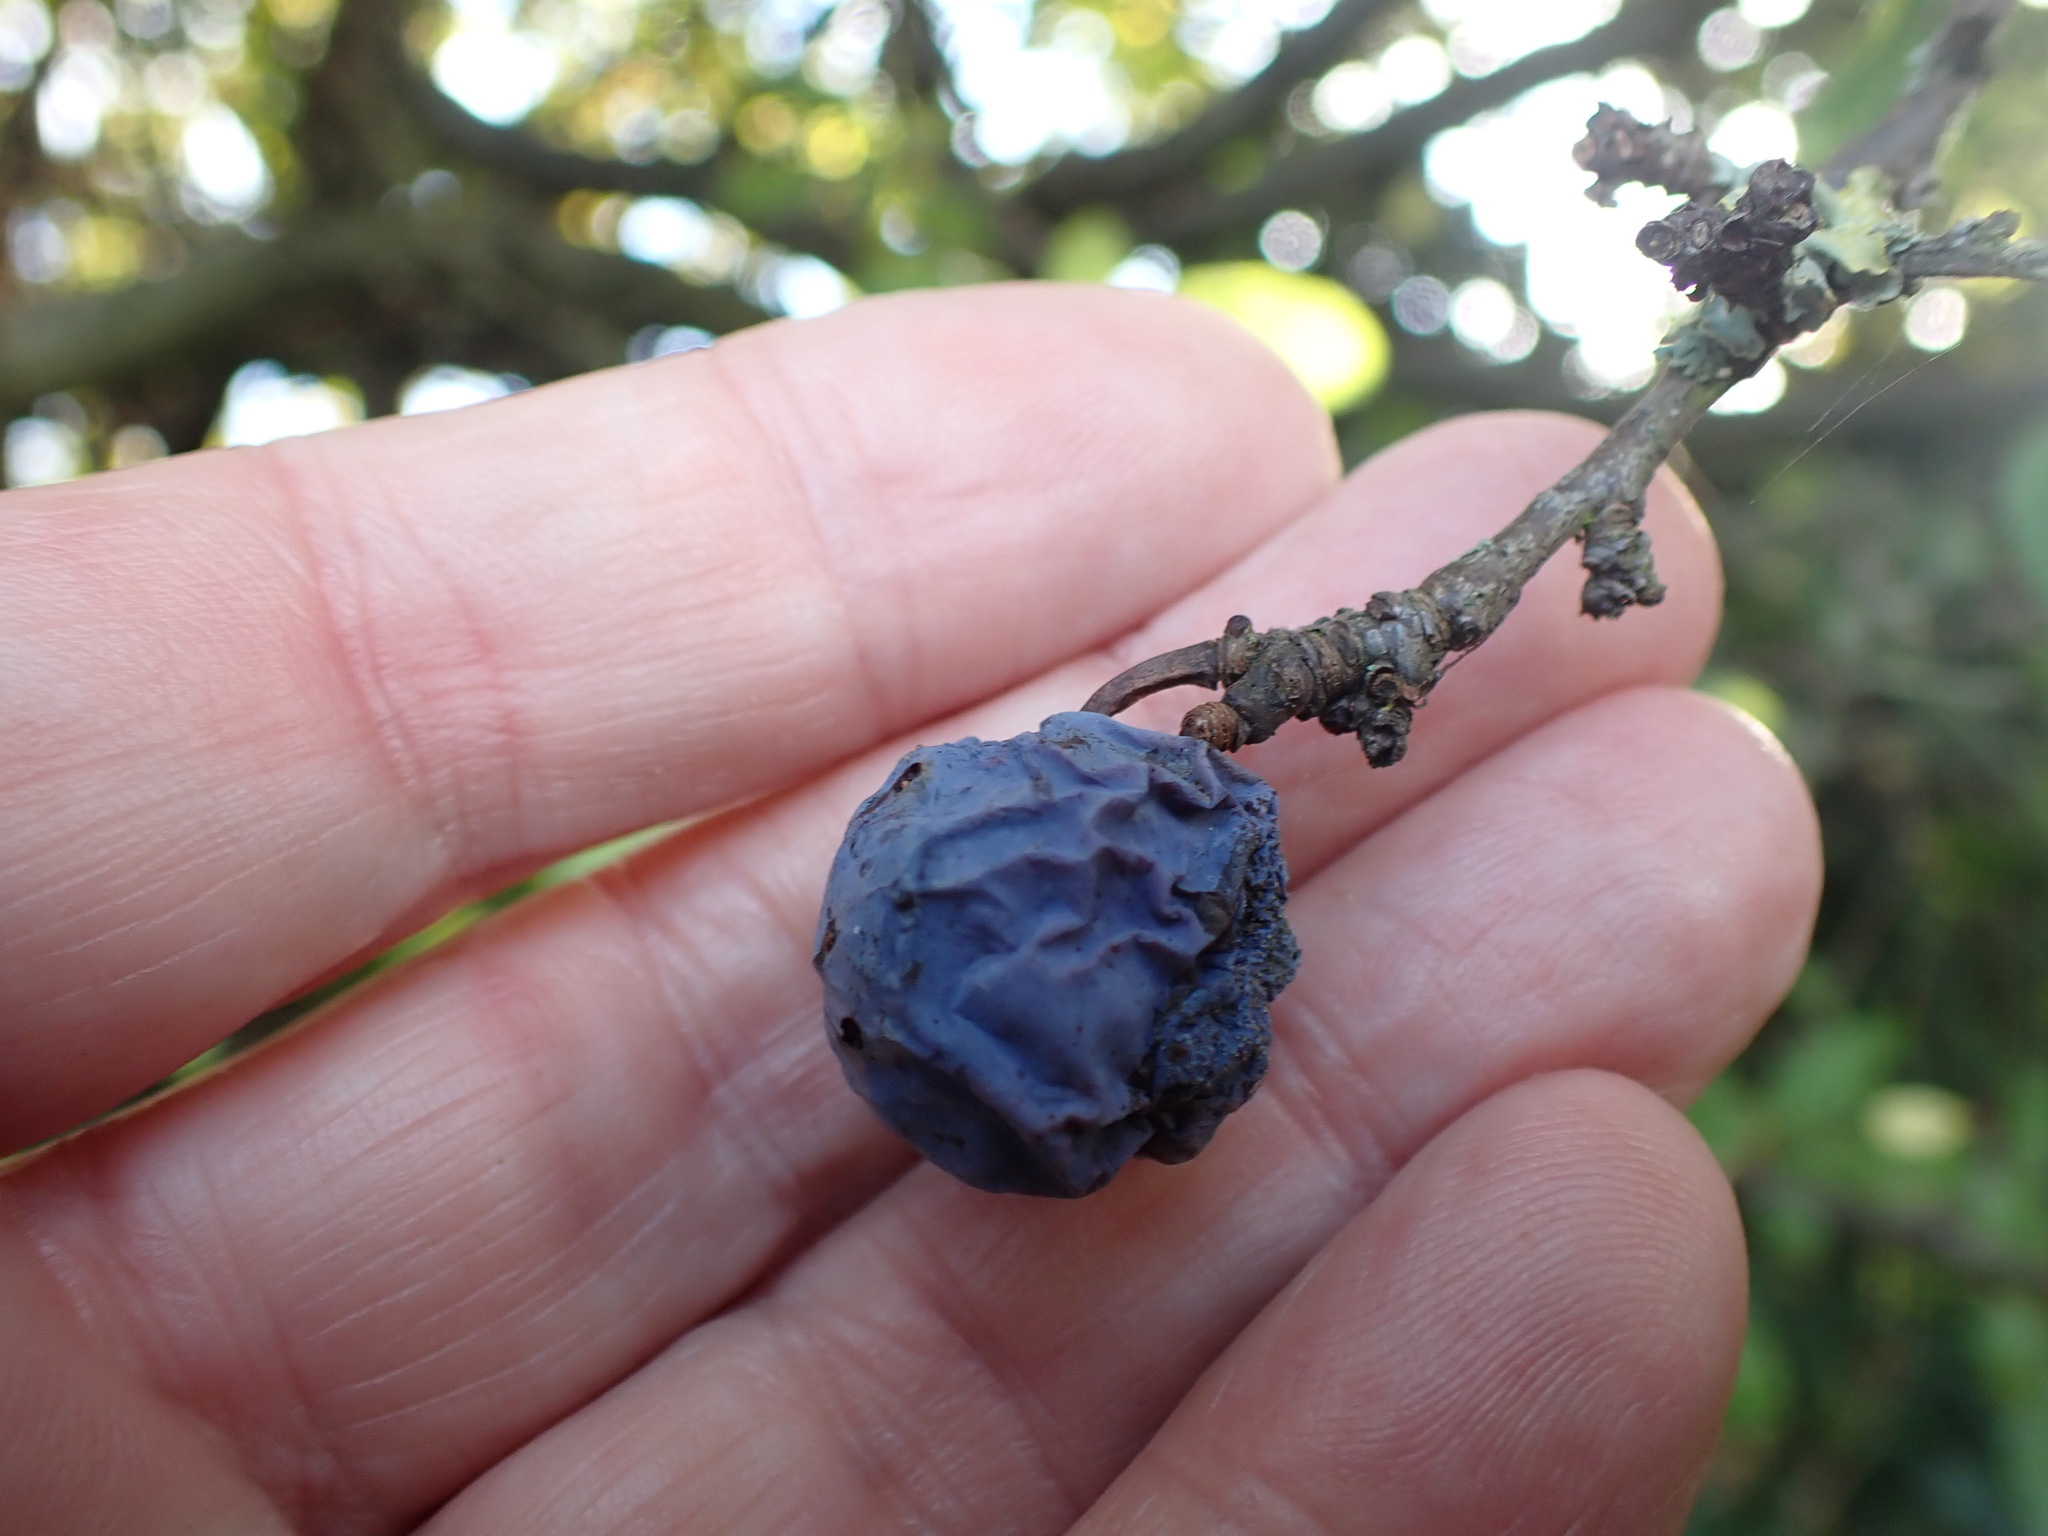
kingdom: Plantae
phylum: Tracheophyta
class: Magnoliopsida
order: Rosales
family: Rosaceae
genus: Prunus
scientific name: Prunus spinosa
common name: Blackthorn
